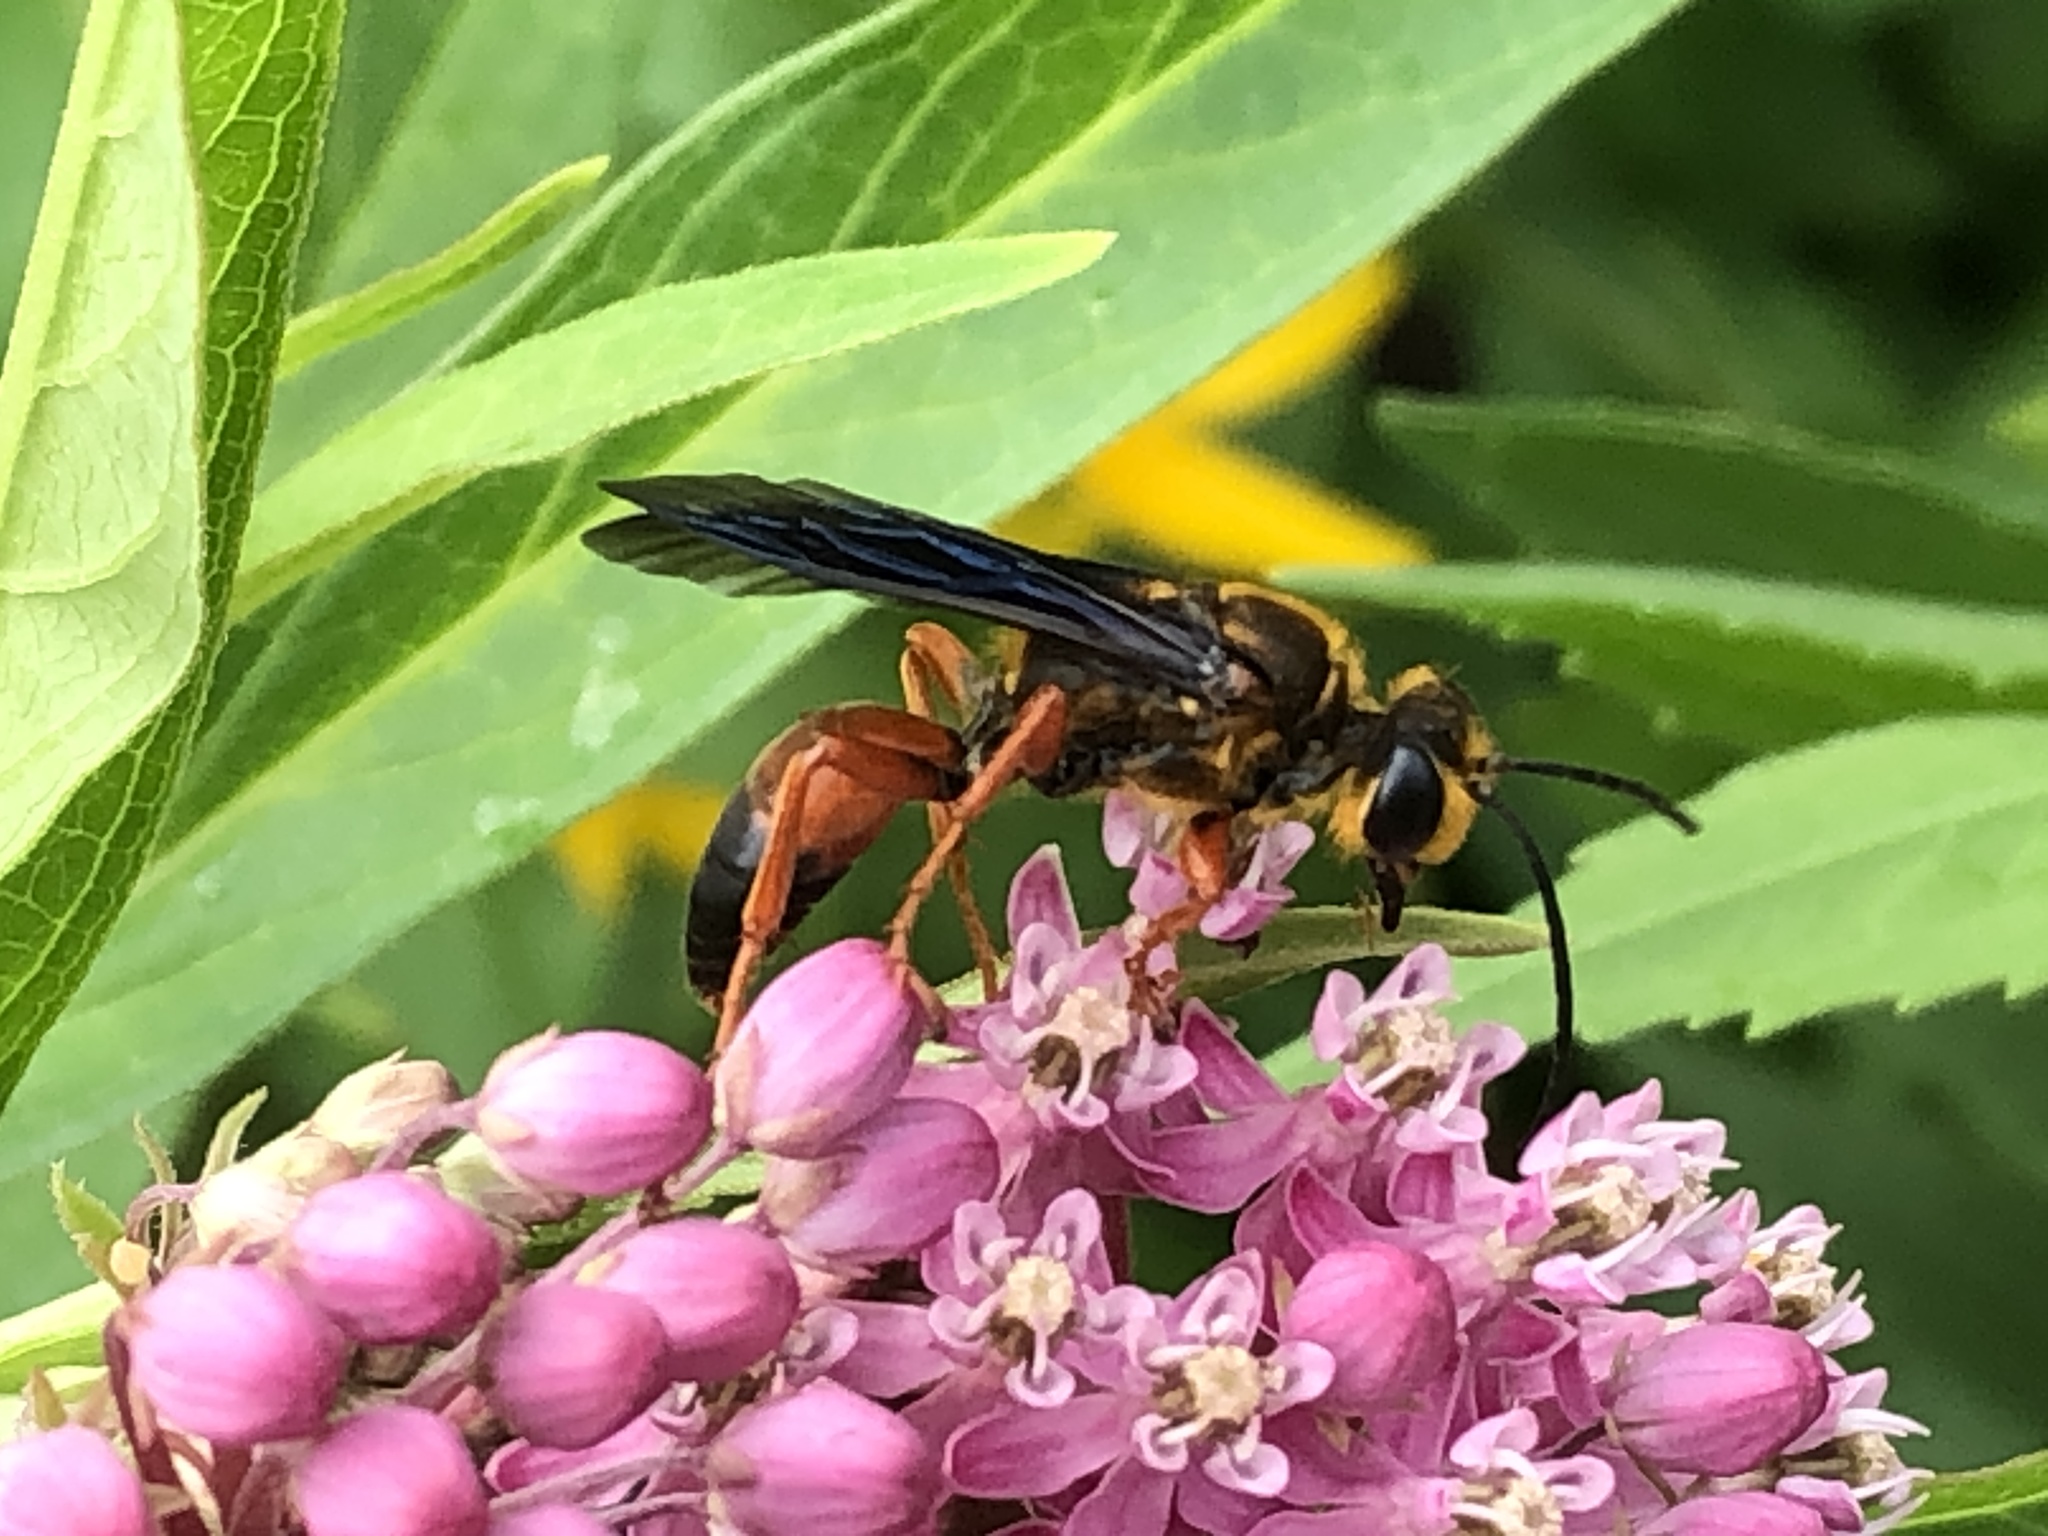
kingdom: Animalia
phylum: Arthropoda
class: Insecta
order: Hymenoptera
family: Sphecidae
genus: Sphex
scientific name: Sphex ichneumoneus
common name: Great golden digger wasp
